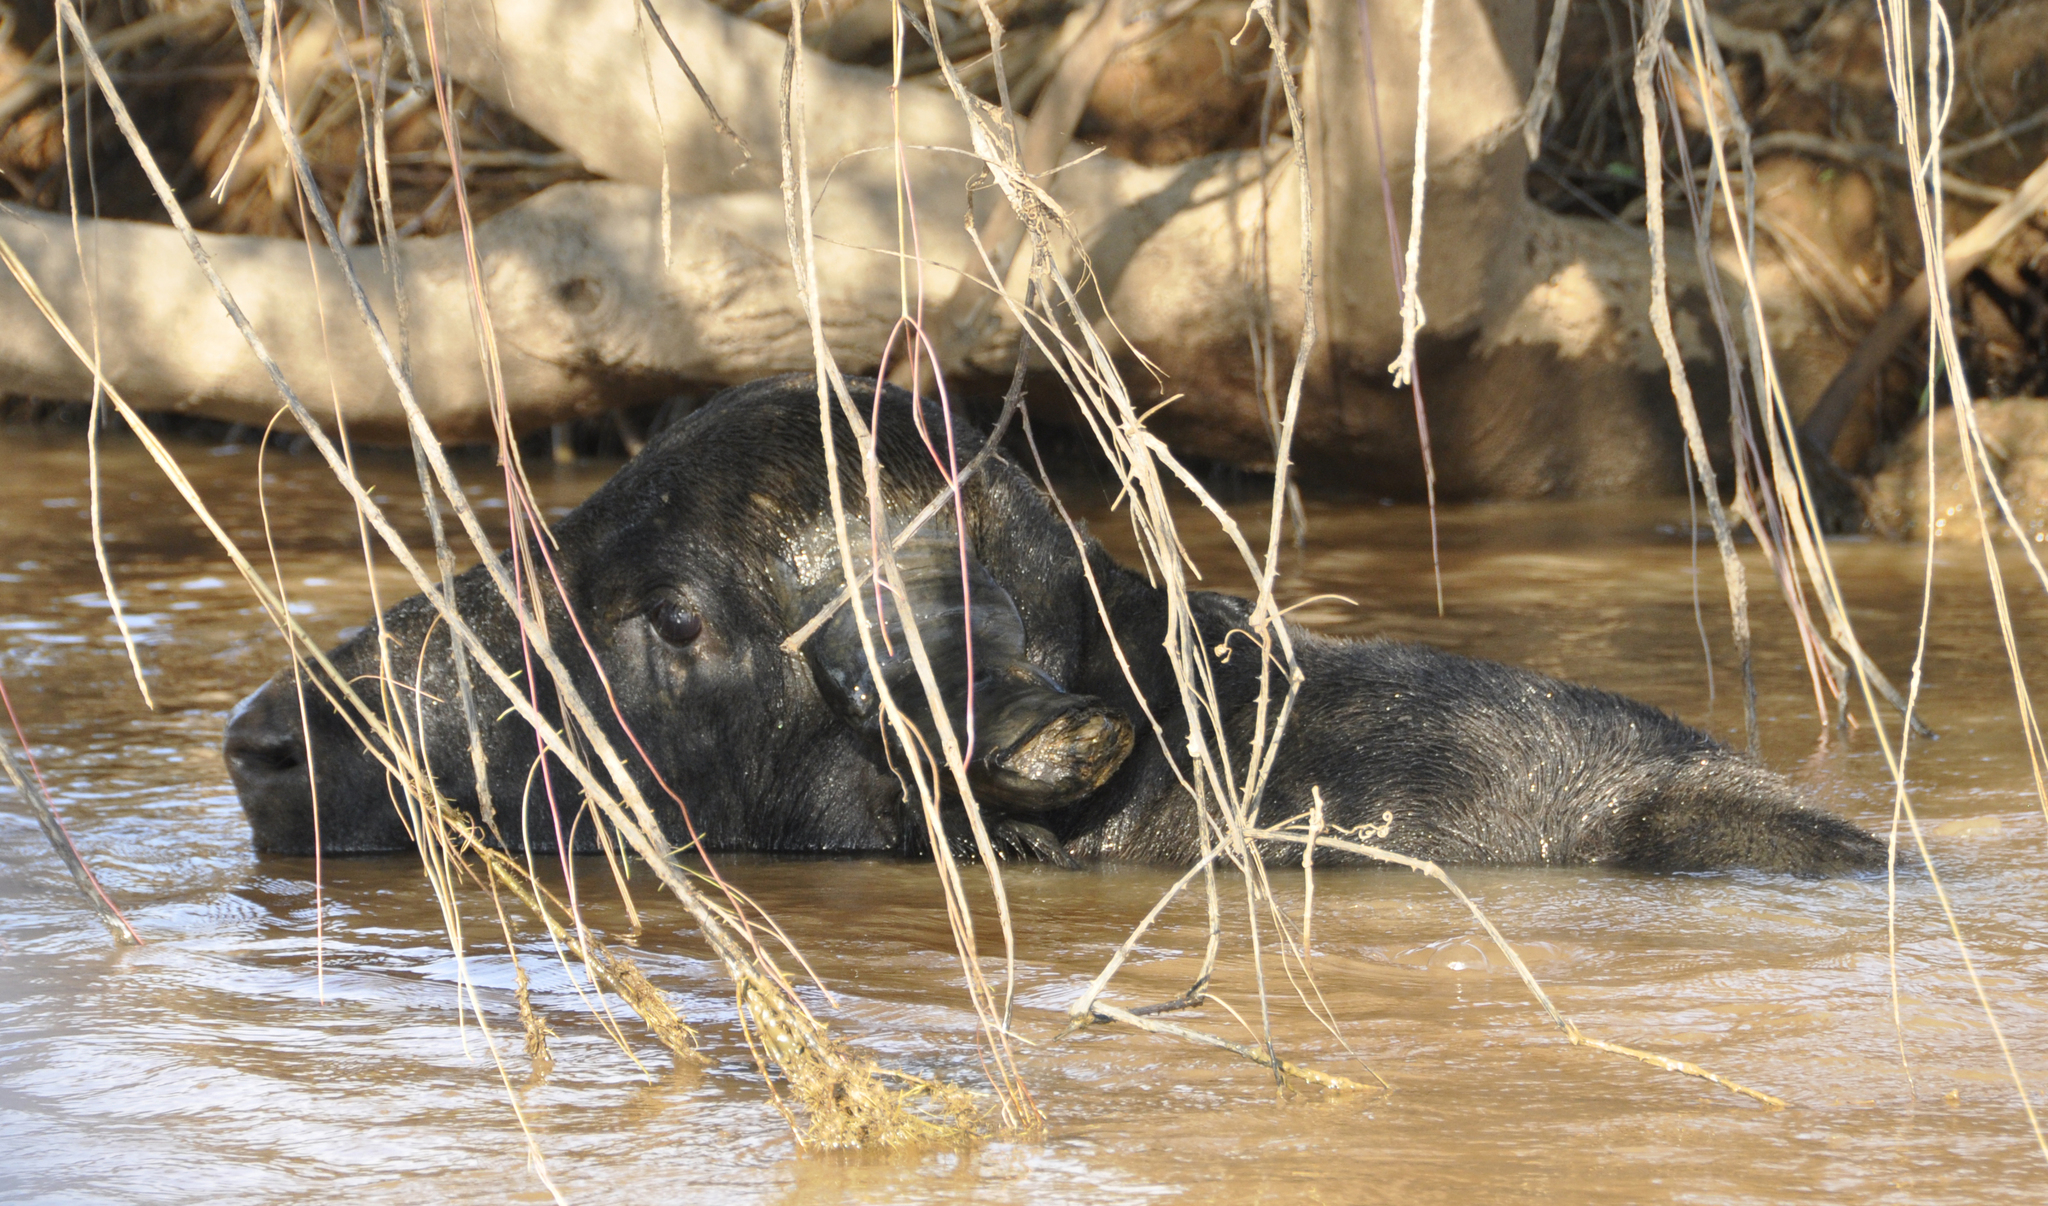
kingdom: Animalia
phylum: Chordata
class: Mammalia
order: Artiodactyla
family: Bovidae
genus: Bubalus
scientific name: Bubalus bubalis
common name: Water buffalo
